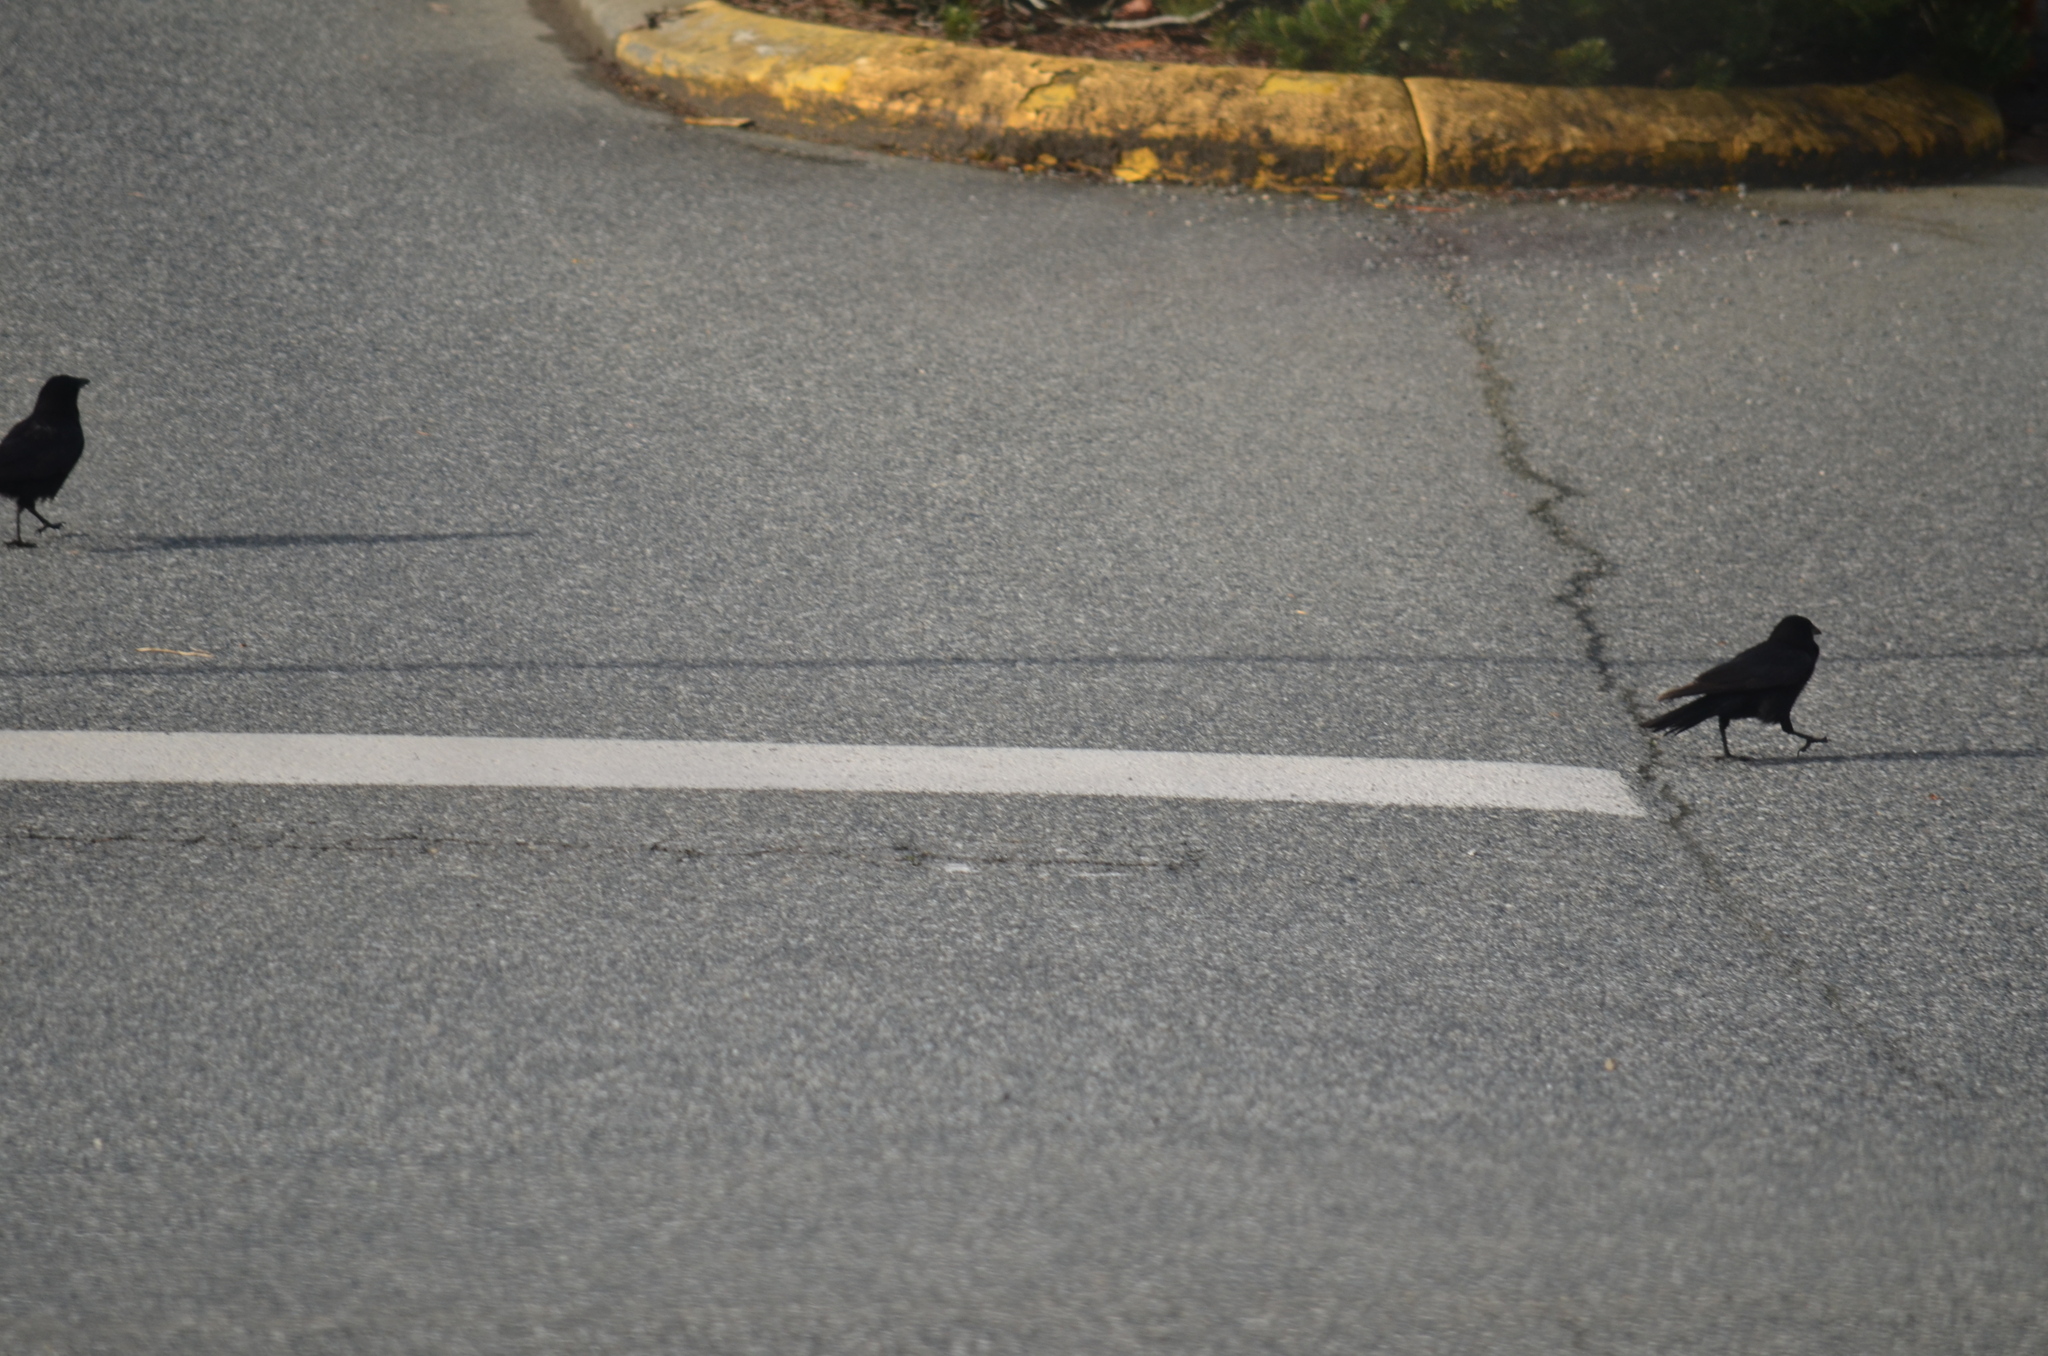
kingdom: Animalia
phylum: Chordata
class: Aves
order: Passeriformes
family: Corvidae
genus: Corvus
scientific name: Corvus brachyrhynchos
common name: American crow
